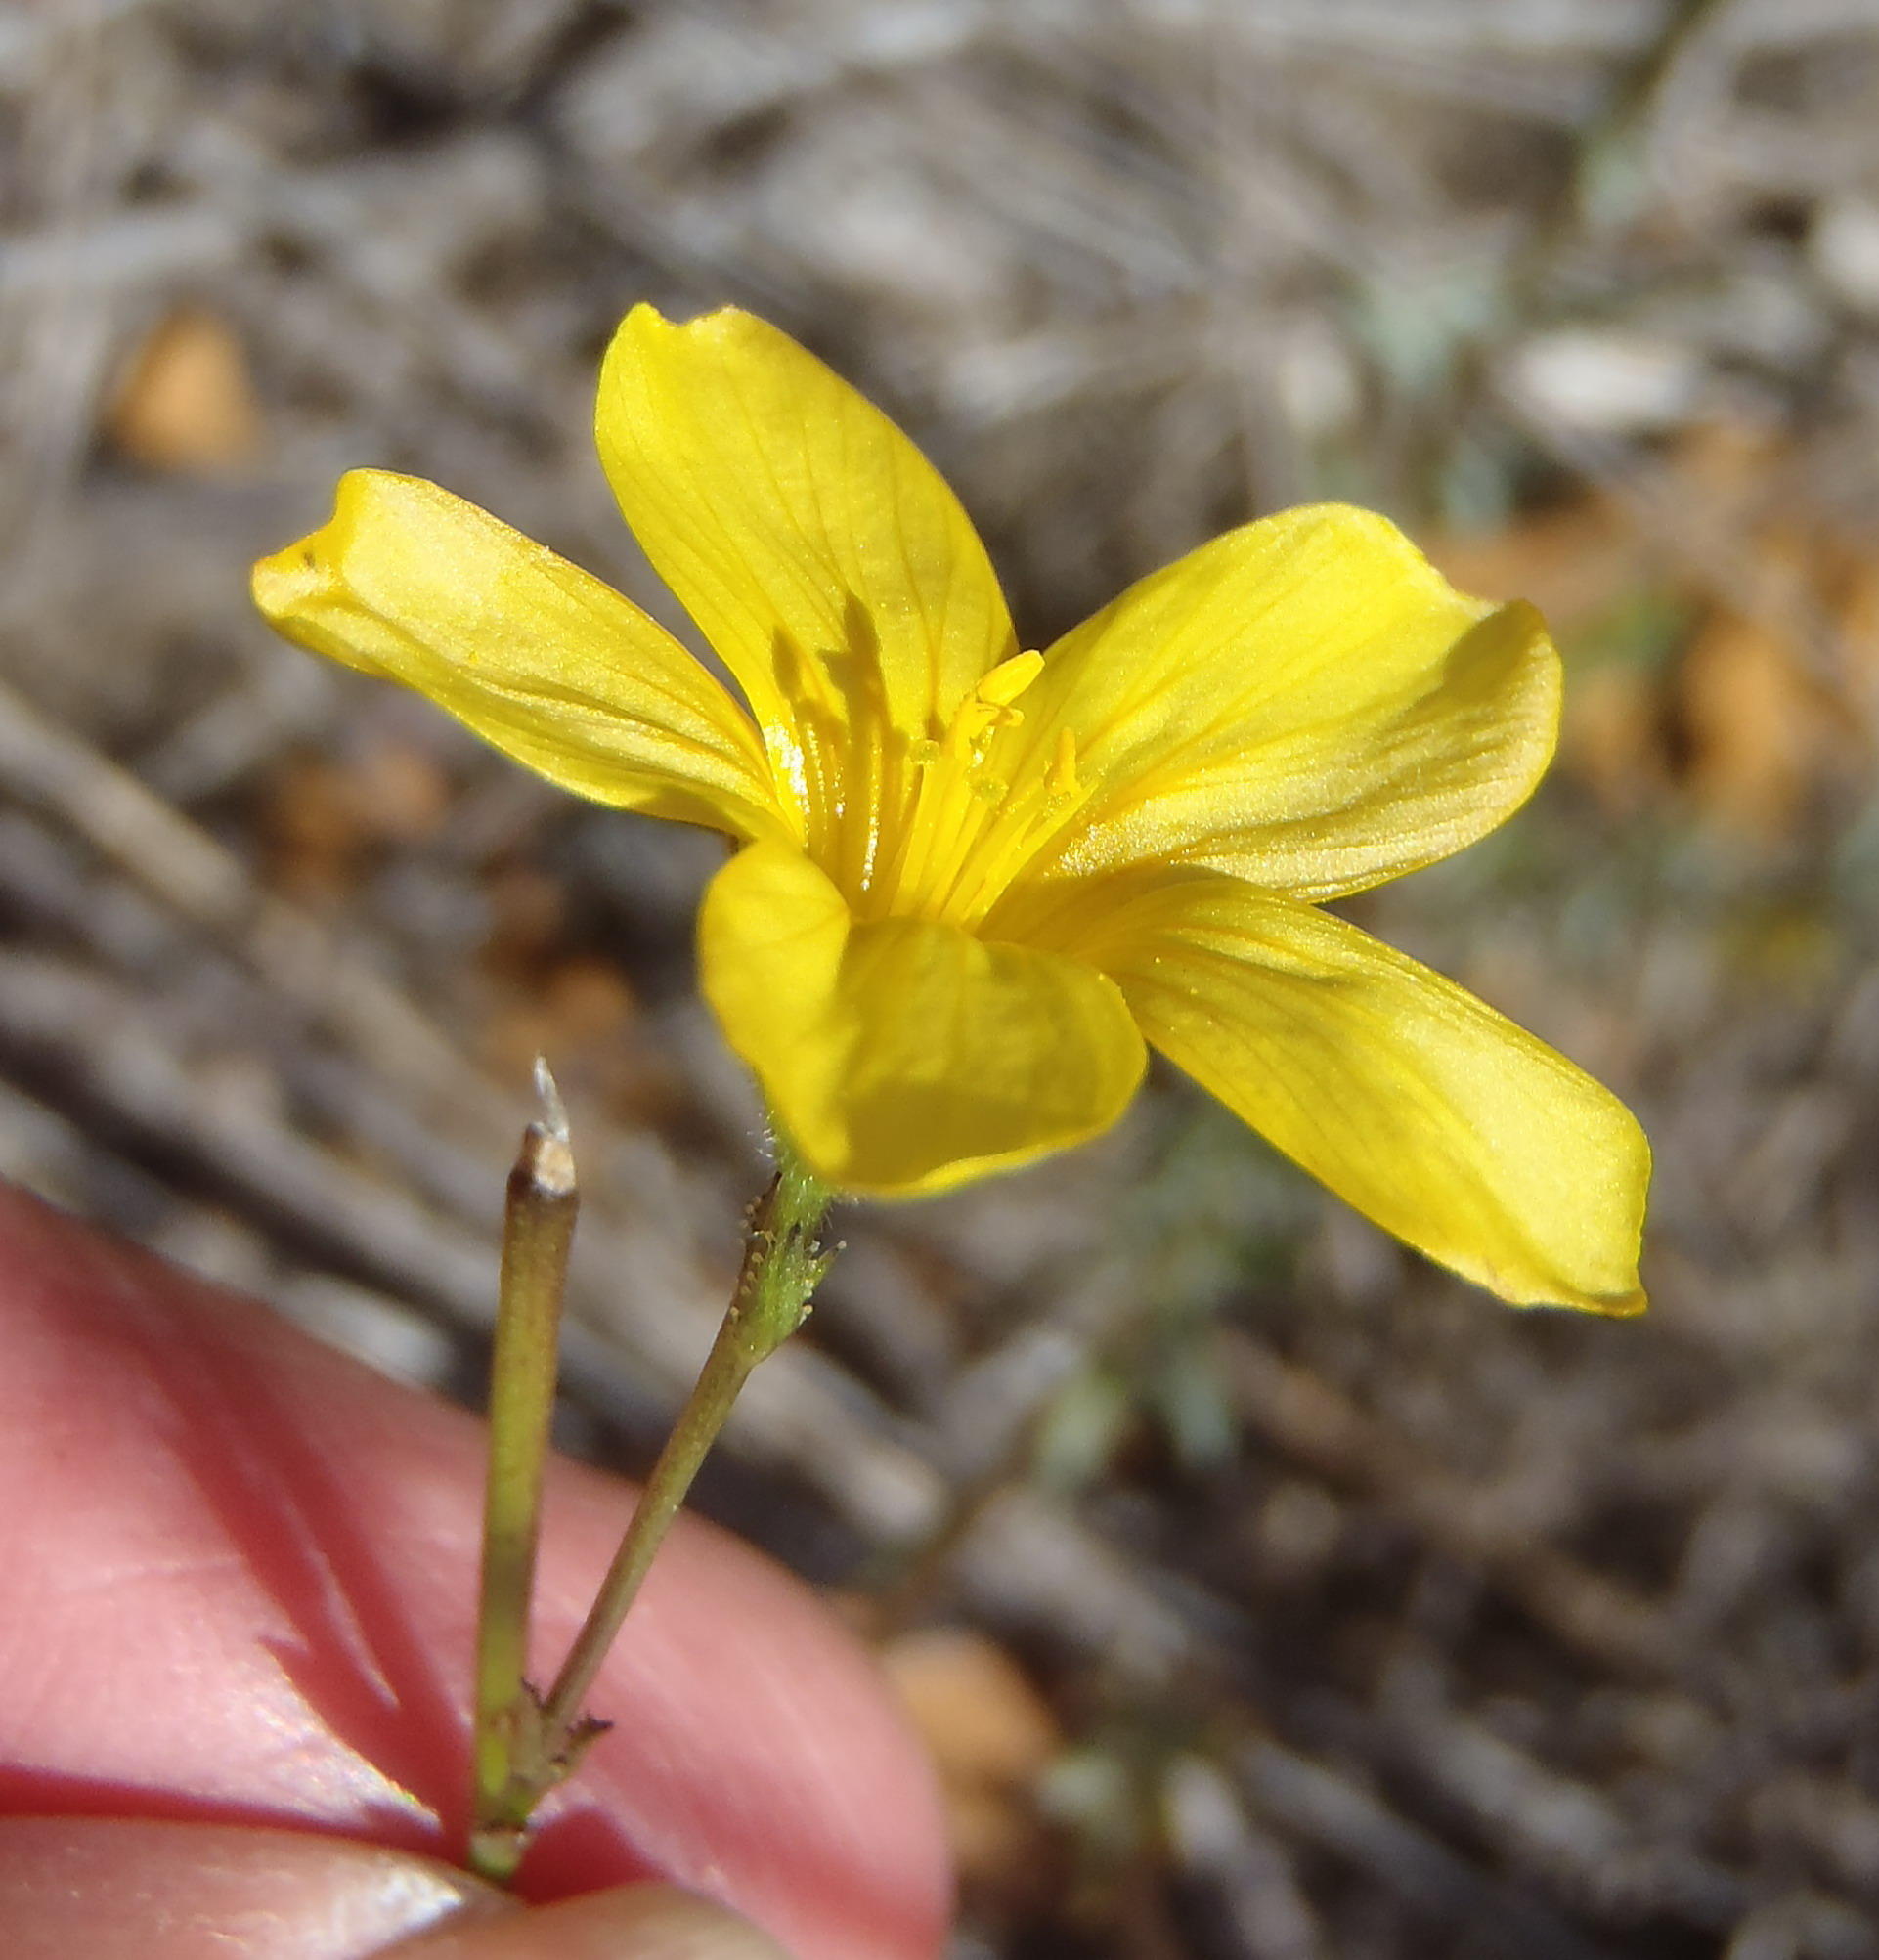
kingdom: Plantae
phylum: Tracheophyta
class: Magnoliopsida
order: Malpighiales
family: Linaceae
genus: Linum
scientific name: Linum africanum
